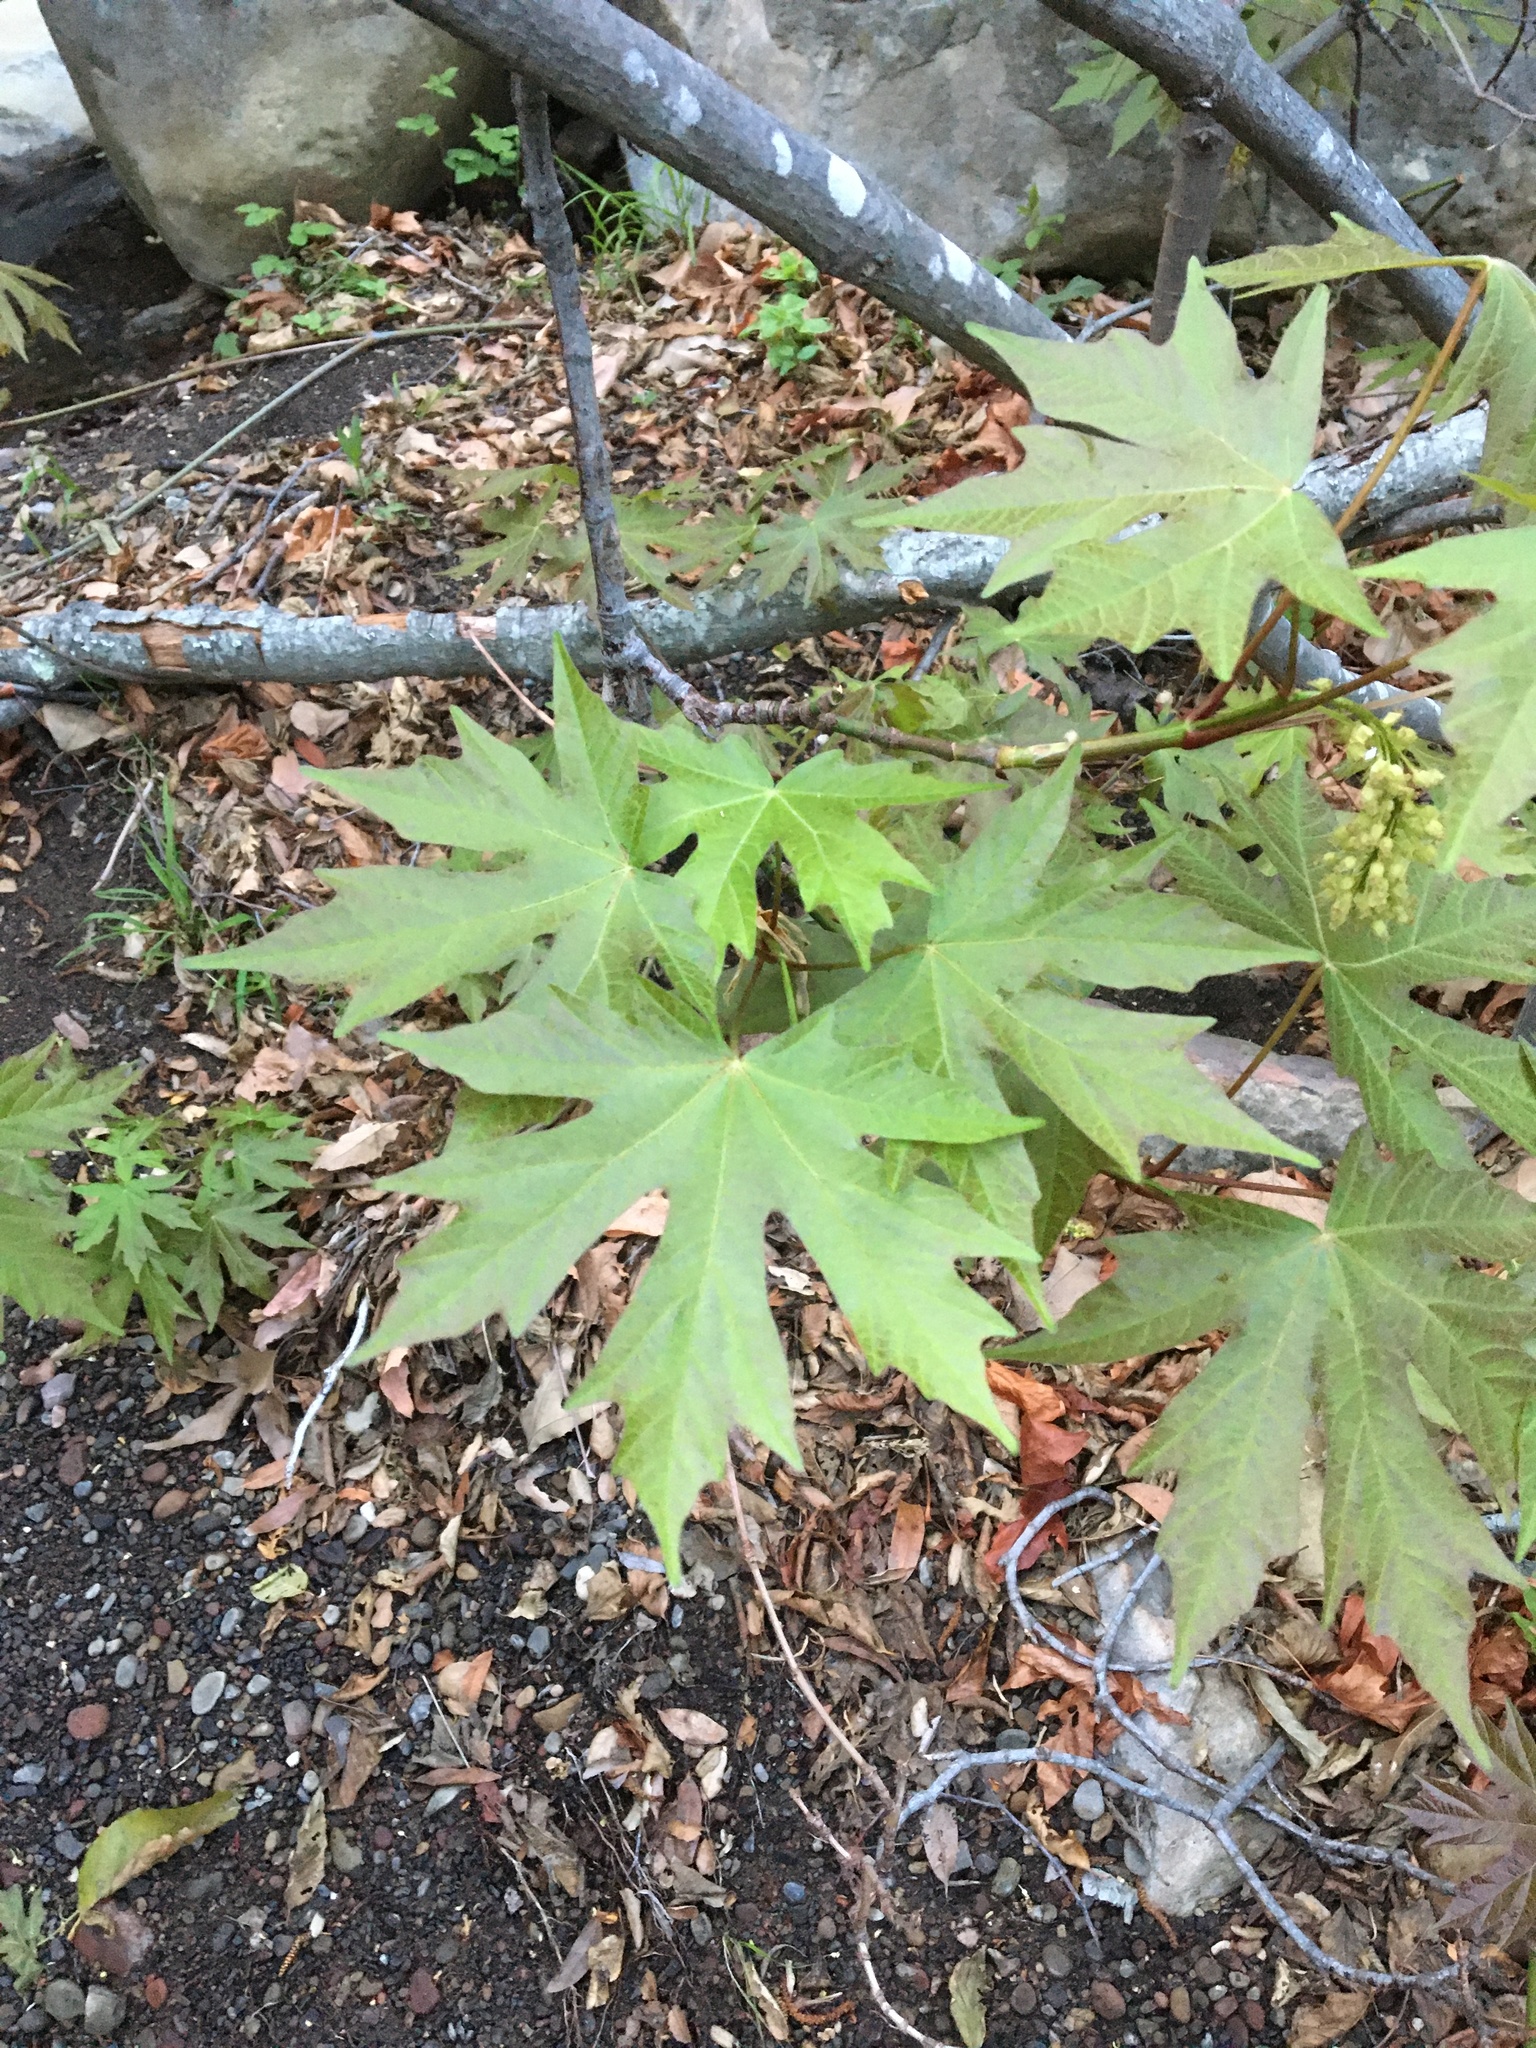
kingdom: Plantae
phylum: Tracheophyta
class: Magnoliopsida
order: Sapindales
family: Sapindaceae
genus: Acer
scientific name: Acer macrophyllum
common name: Oregon maple
